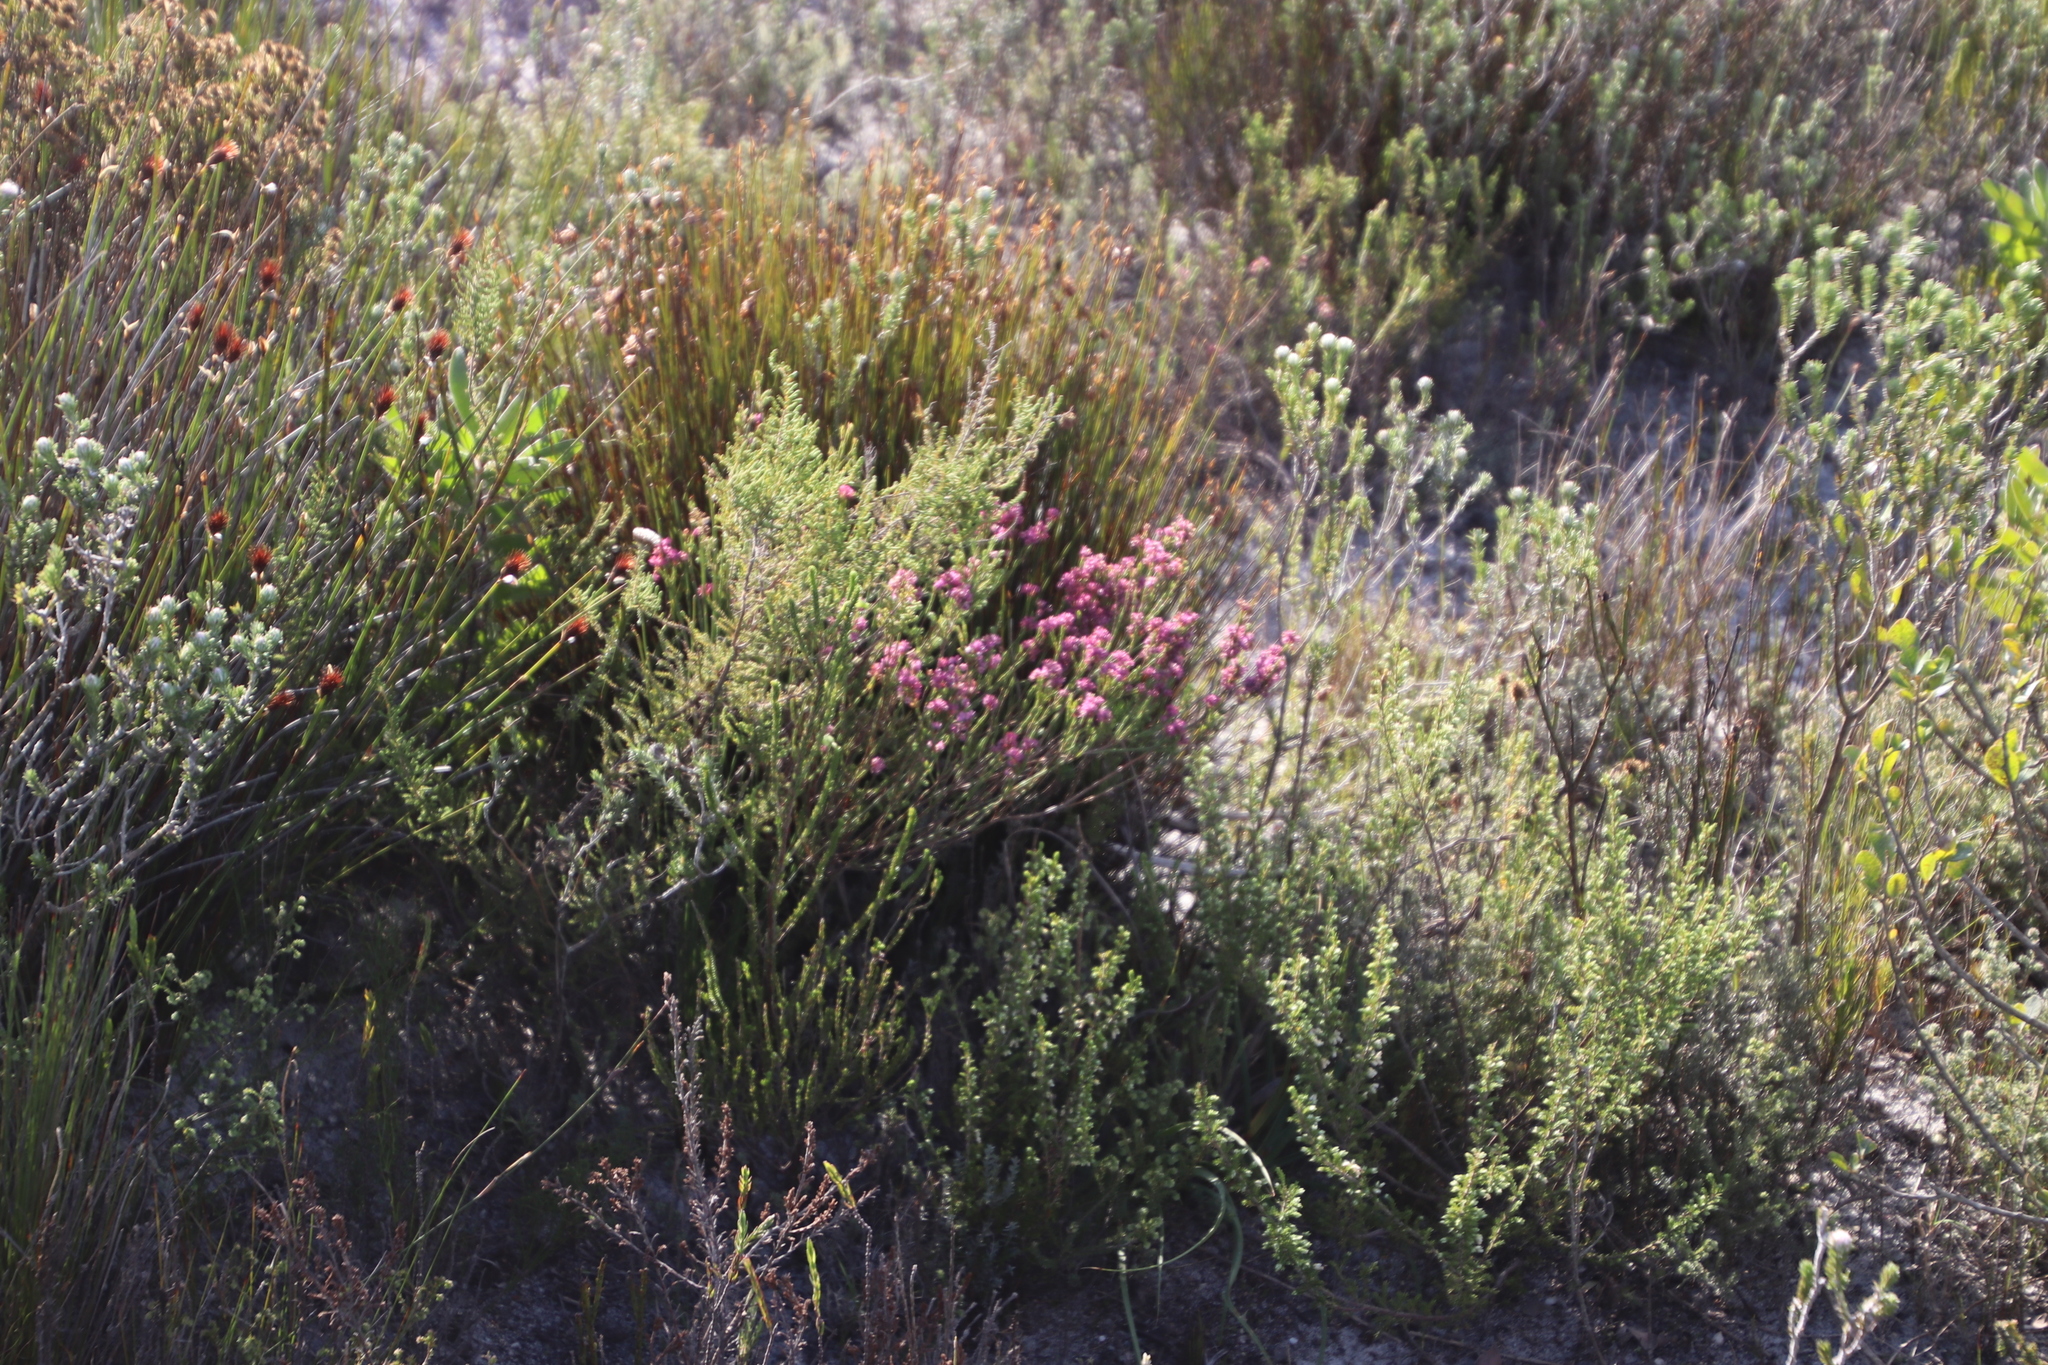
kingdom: Plantae
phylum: Tracheophyta
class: Magnoliopsida
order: Ericales
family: Ericaceae
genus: Erica
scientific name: Erica corifolia
